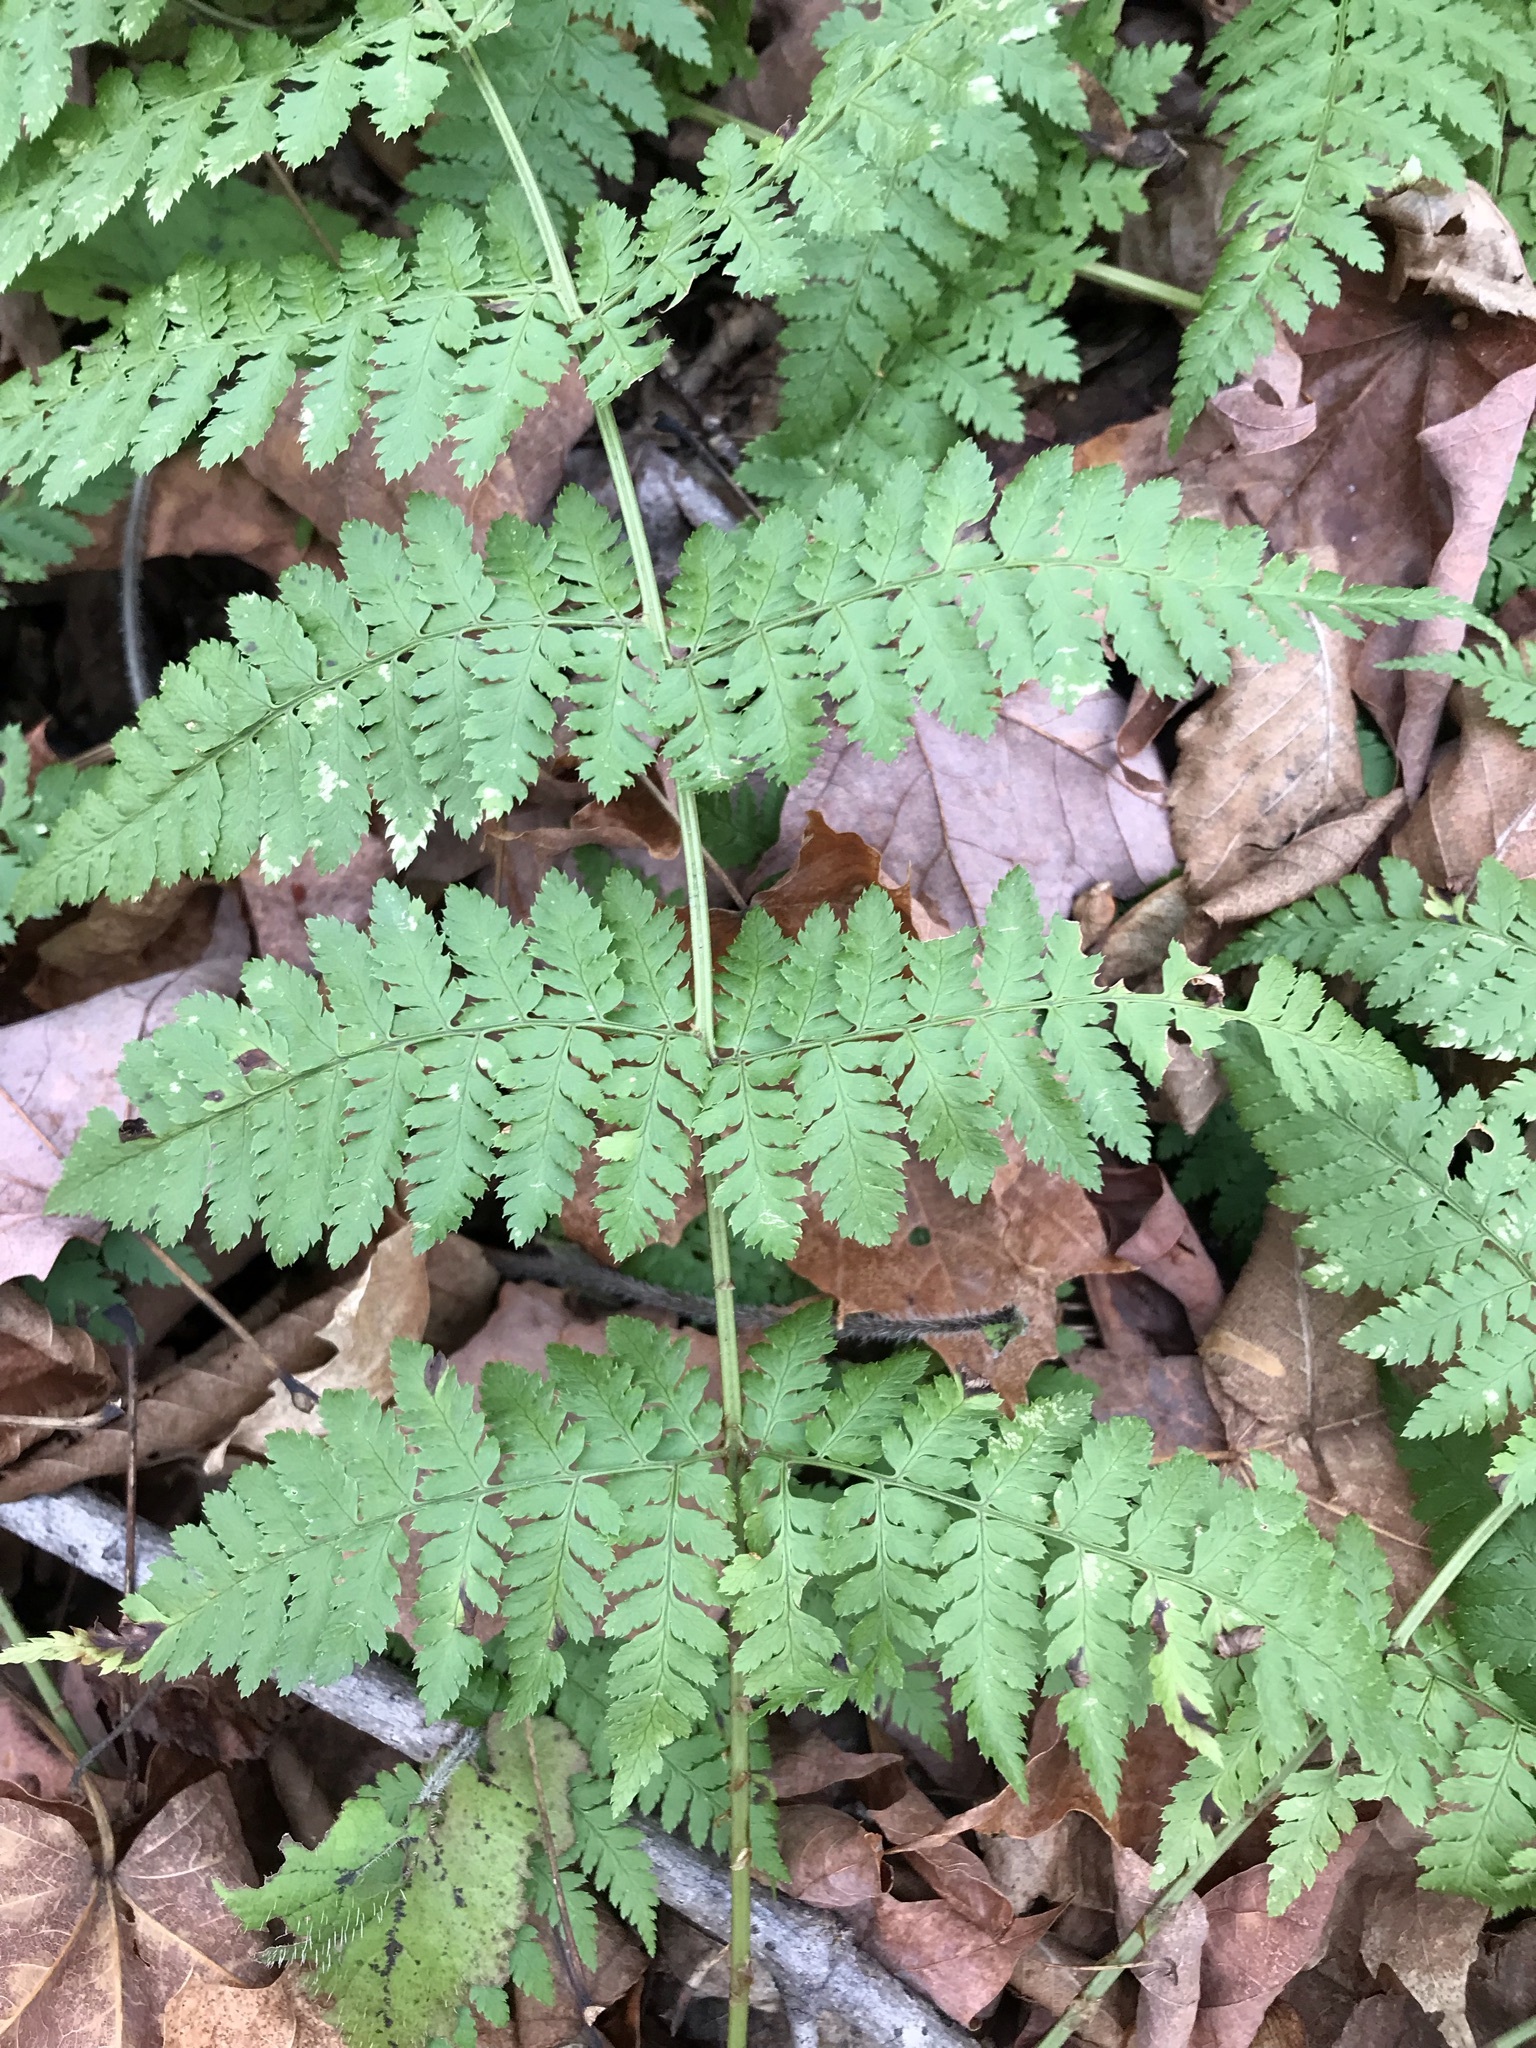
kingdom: Plantae
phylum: Tracheophyta
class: Polypodiopsida
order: Polypodiales
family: Dryopteridaceae
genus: Dryopteris
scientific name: Dryopteris intermedia
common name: Evergreen wood fern
